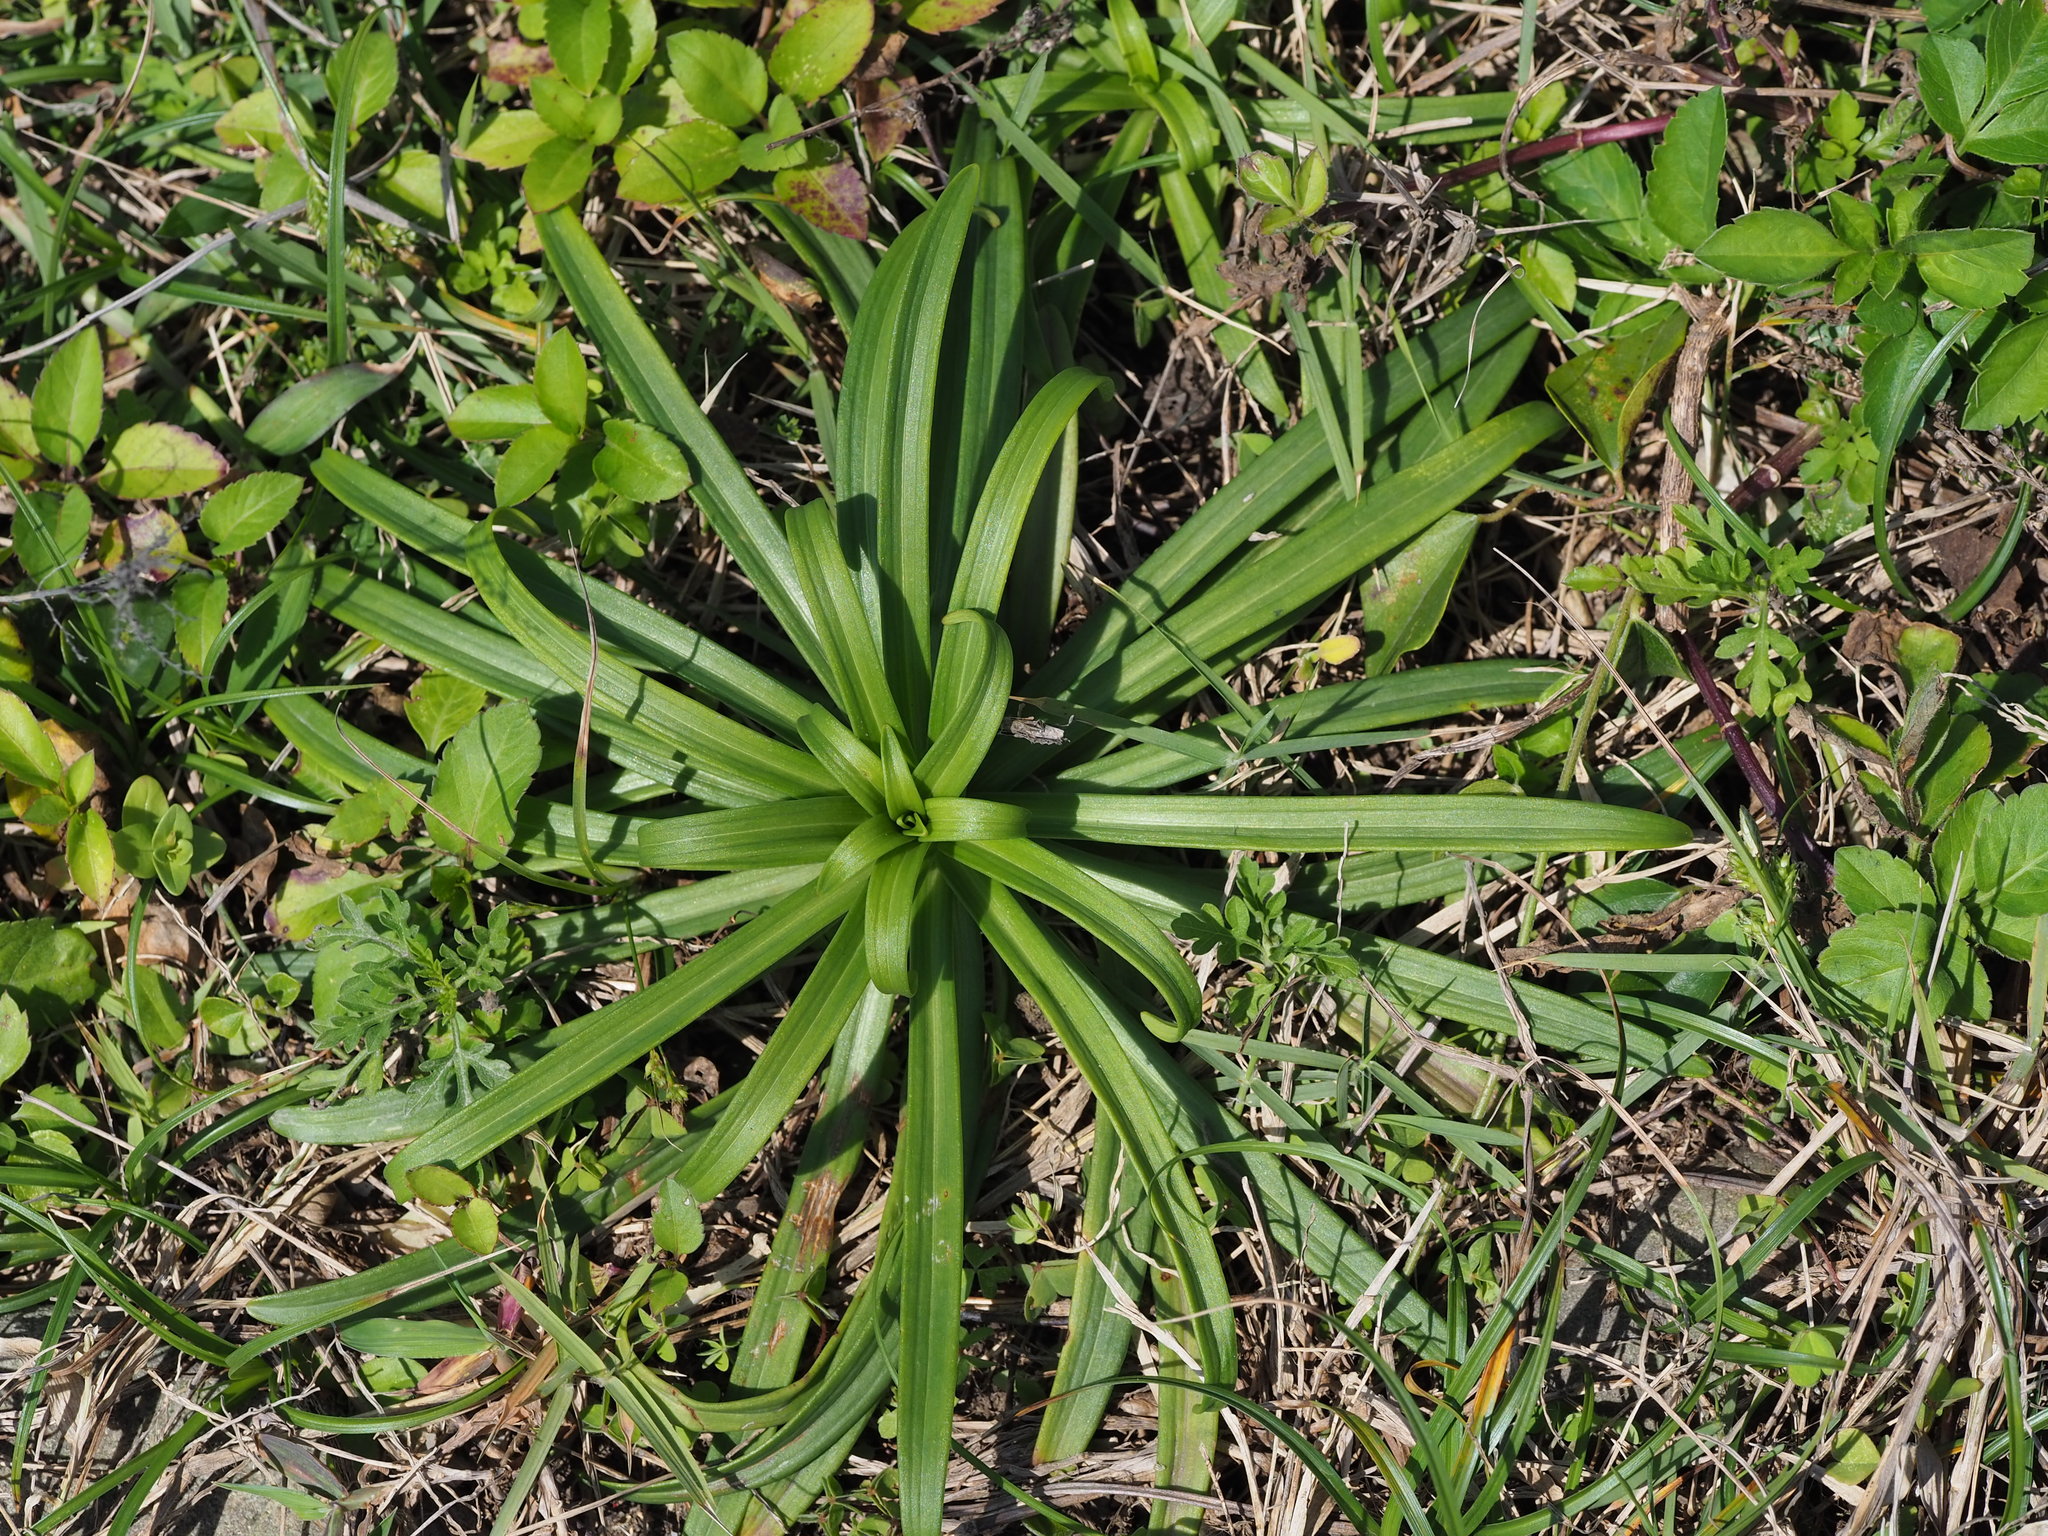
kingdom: Plantae
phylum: Tracheophyta
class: Liliopsida
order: Liliales
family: Liliaceae
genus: Lilium
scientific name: Lilium longiflorum
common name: Easter lily
